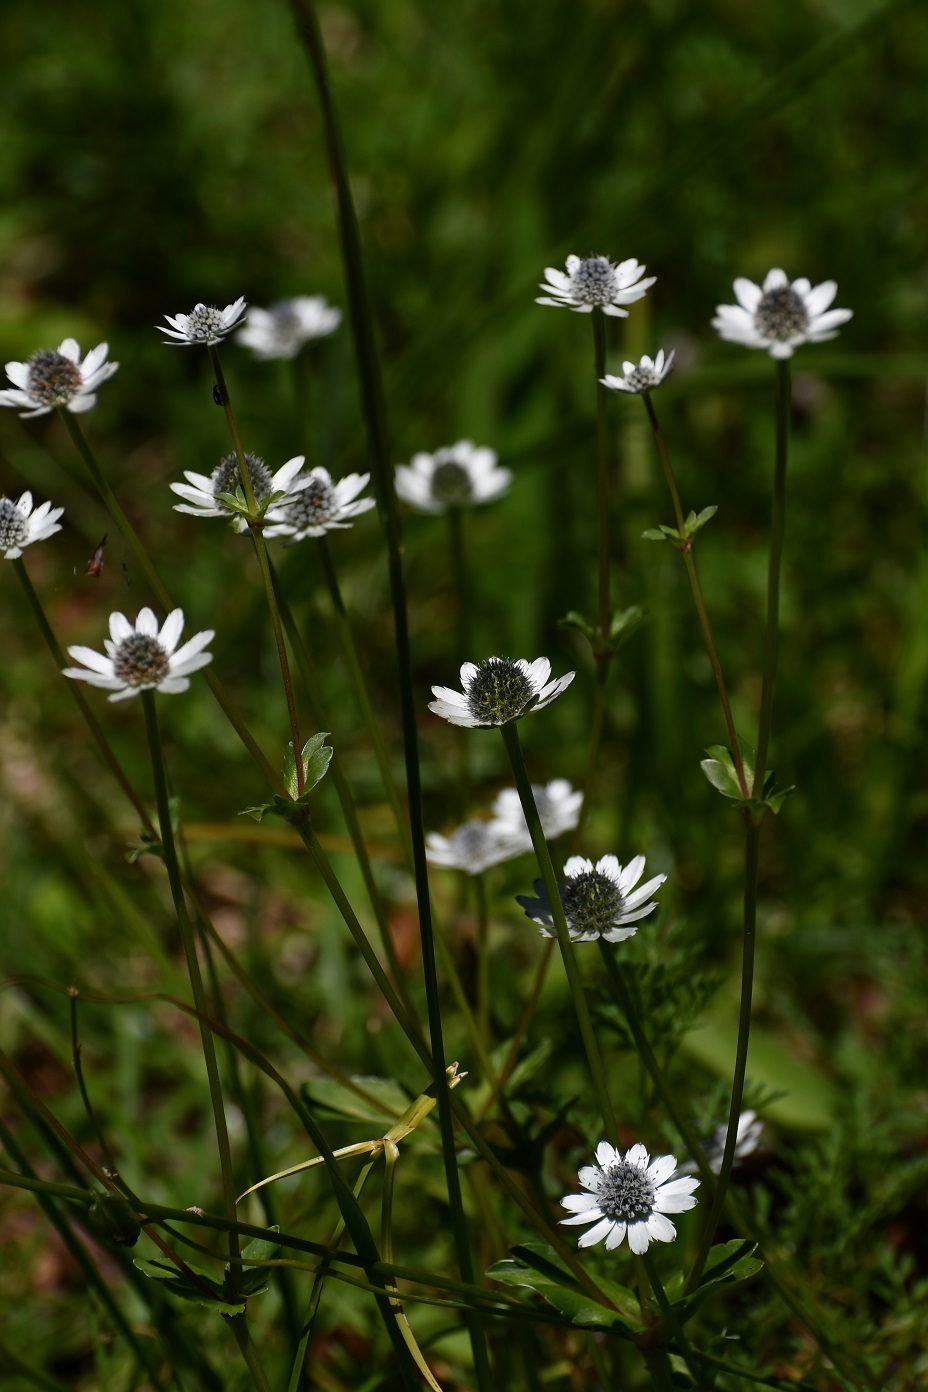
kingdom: Plantae
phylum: Tracheophyta
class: Magnoliopsida
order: Apiales
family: Apiaceae
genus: Eryngium
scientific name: Eryngium scaposum
